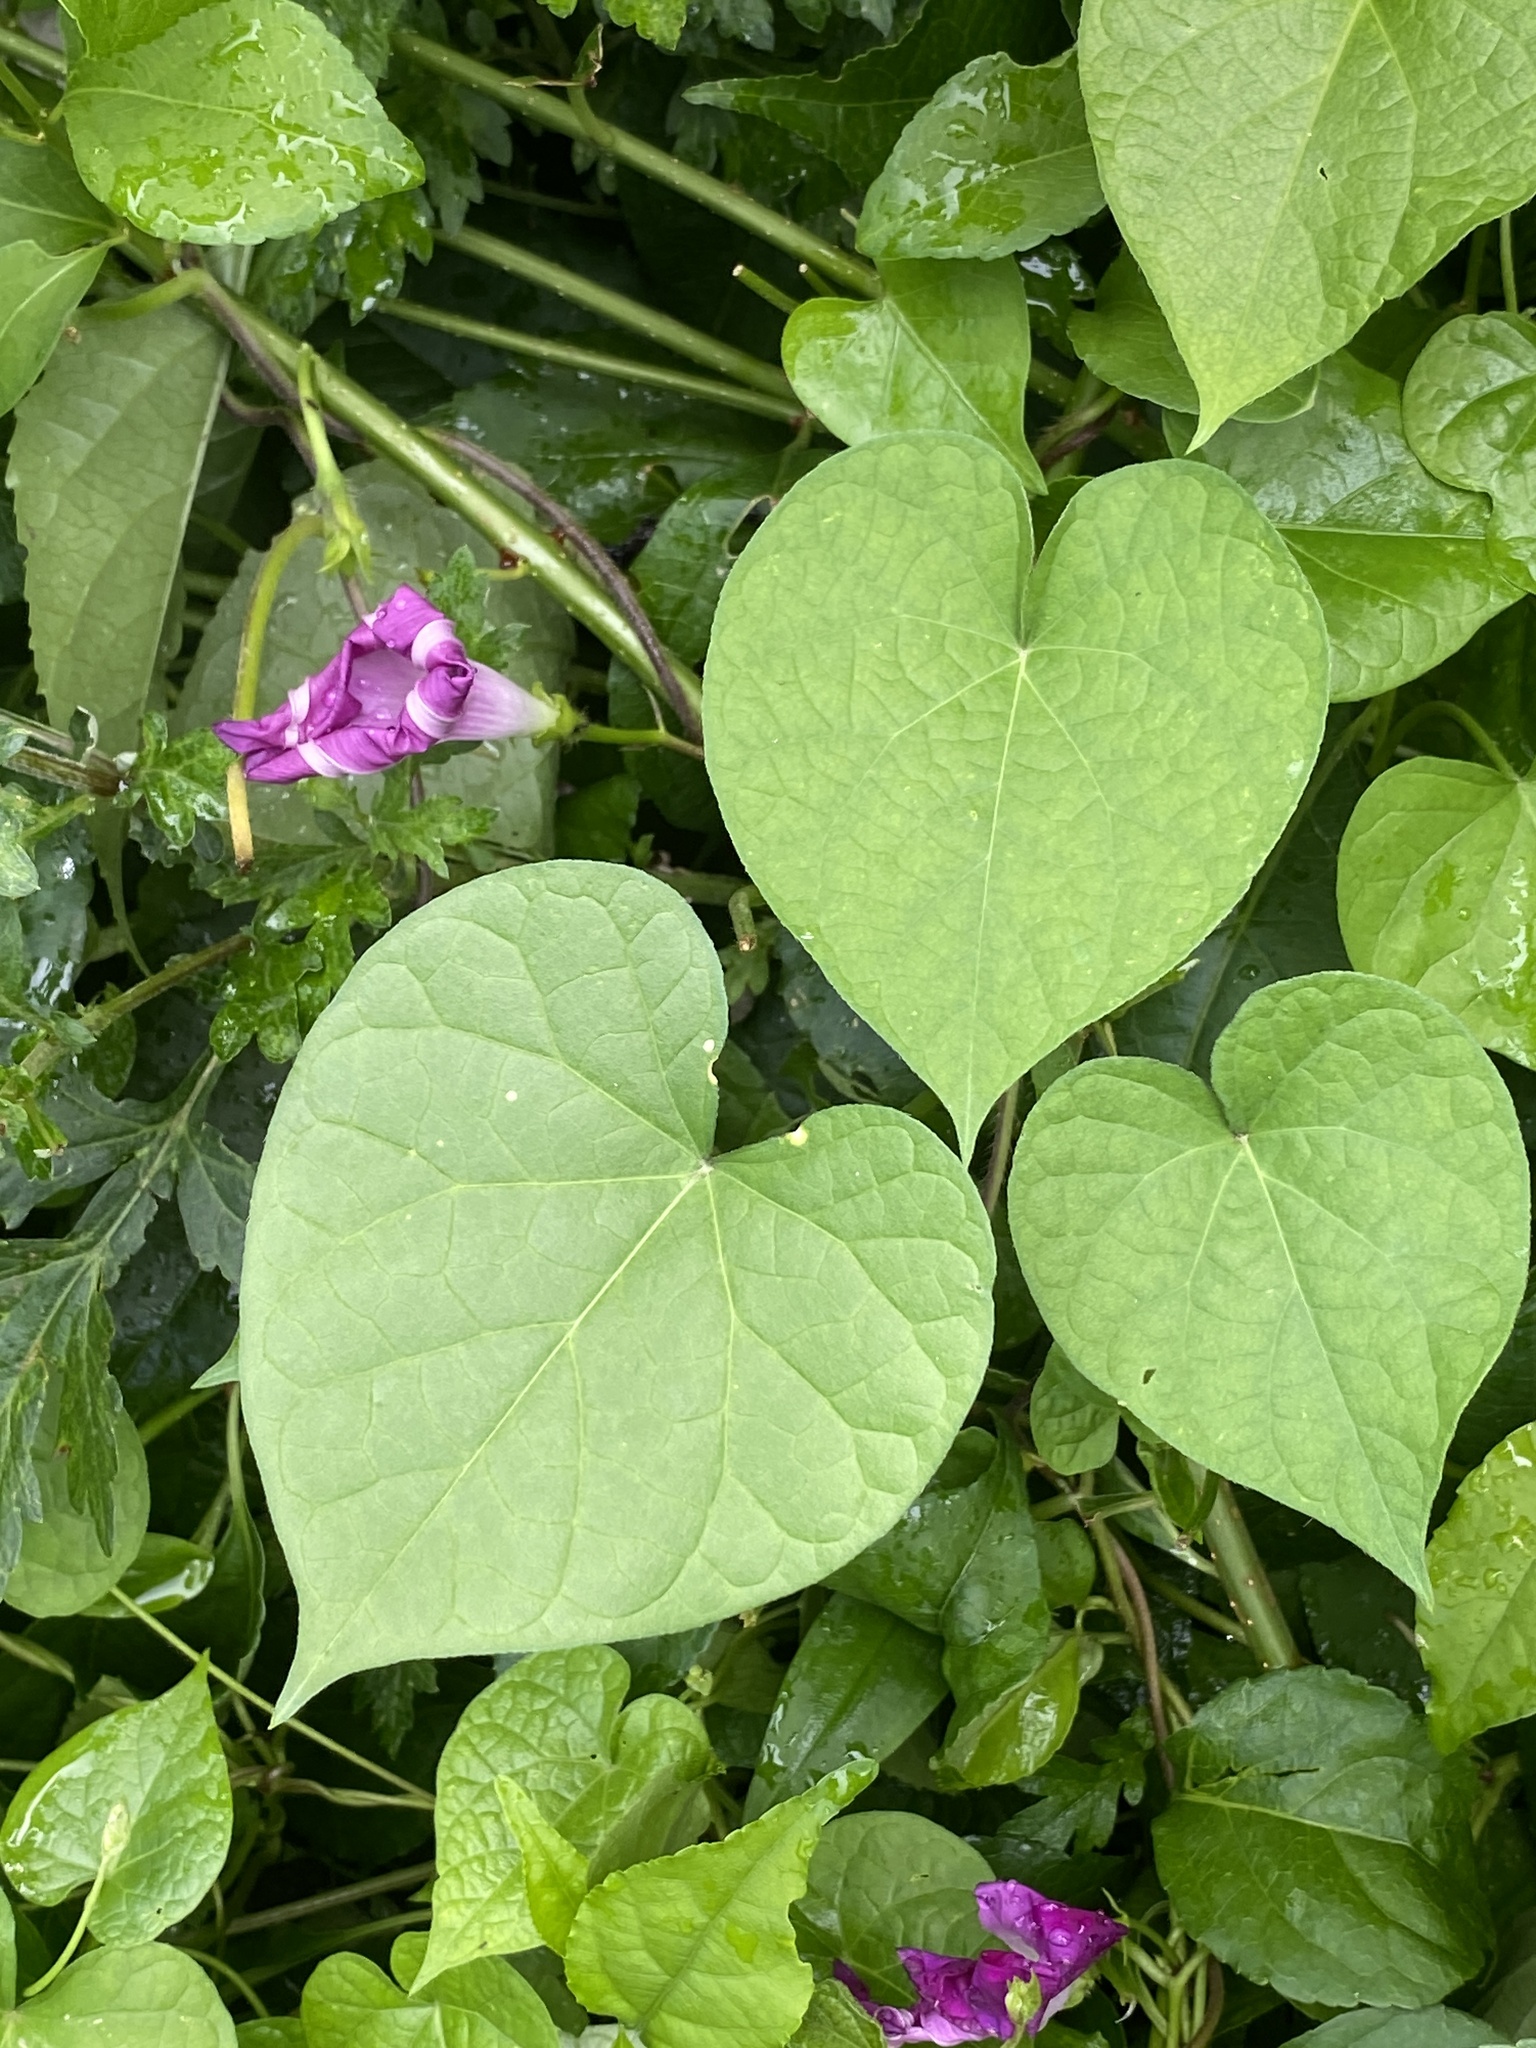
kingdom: Plantae
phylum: Tracheophyta
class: Magnoliopsida
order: Solanales
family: Convolvulaceae
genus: Ipomoea
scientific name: Ipomoea purpurea
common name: Common morning-glory
